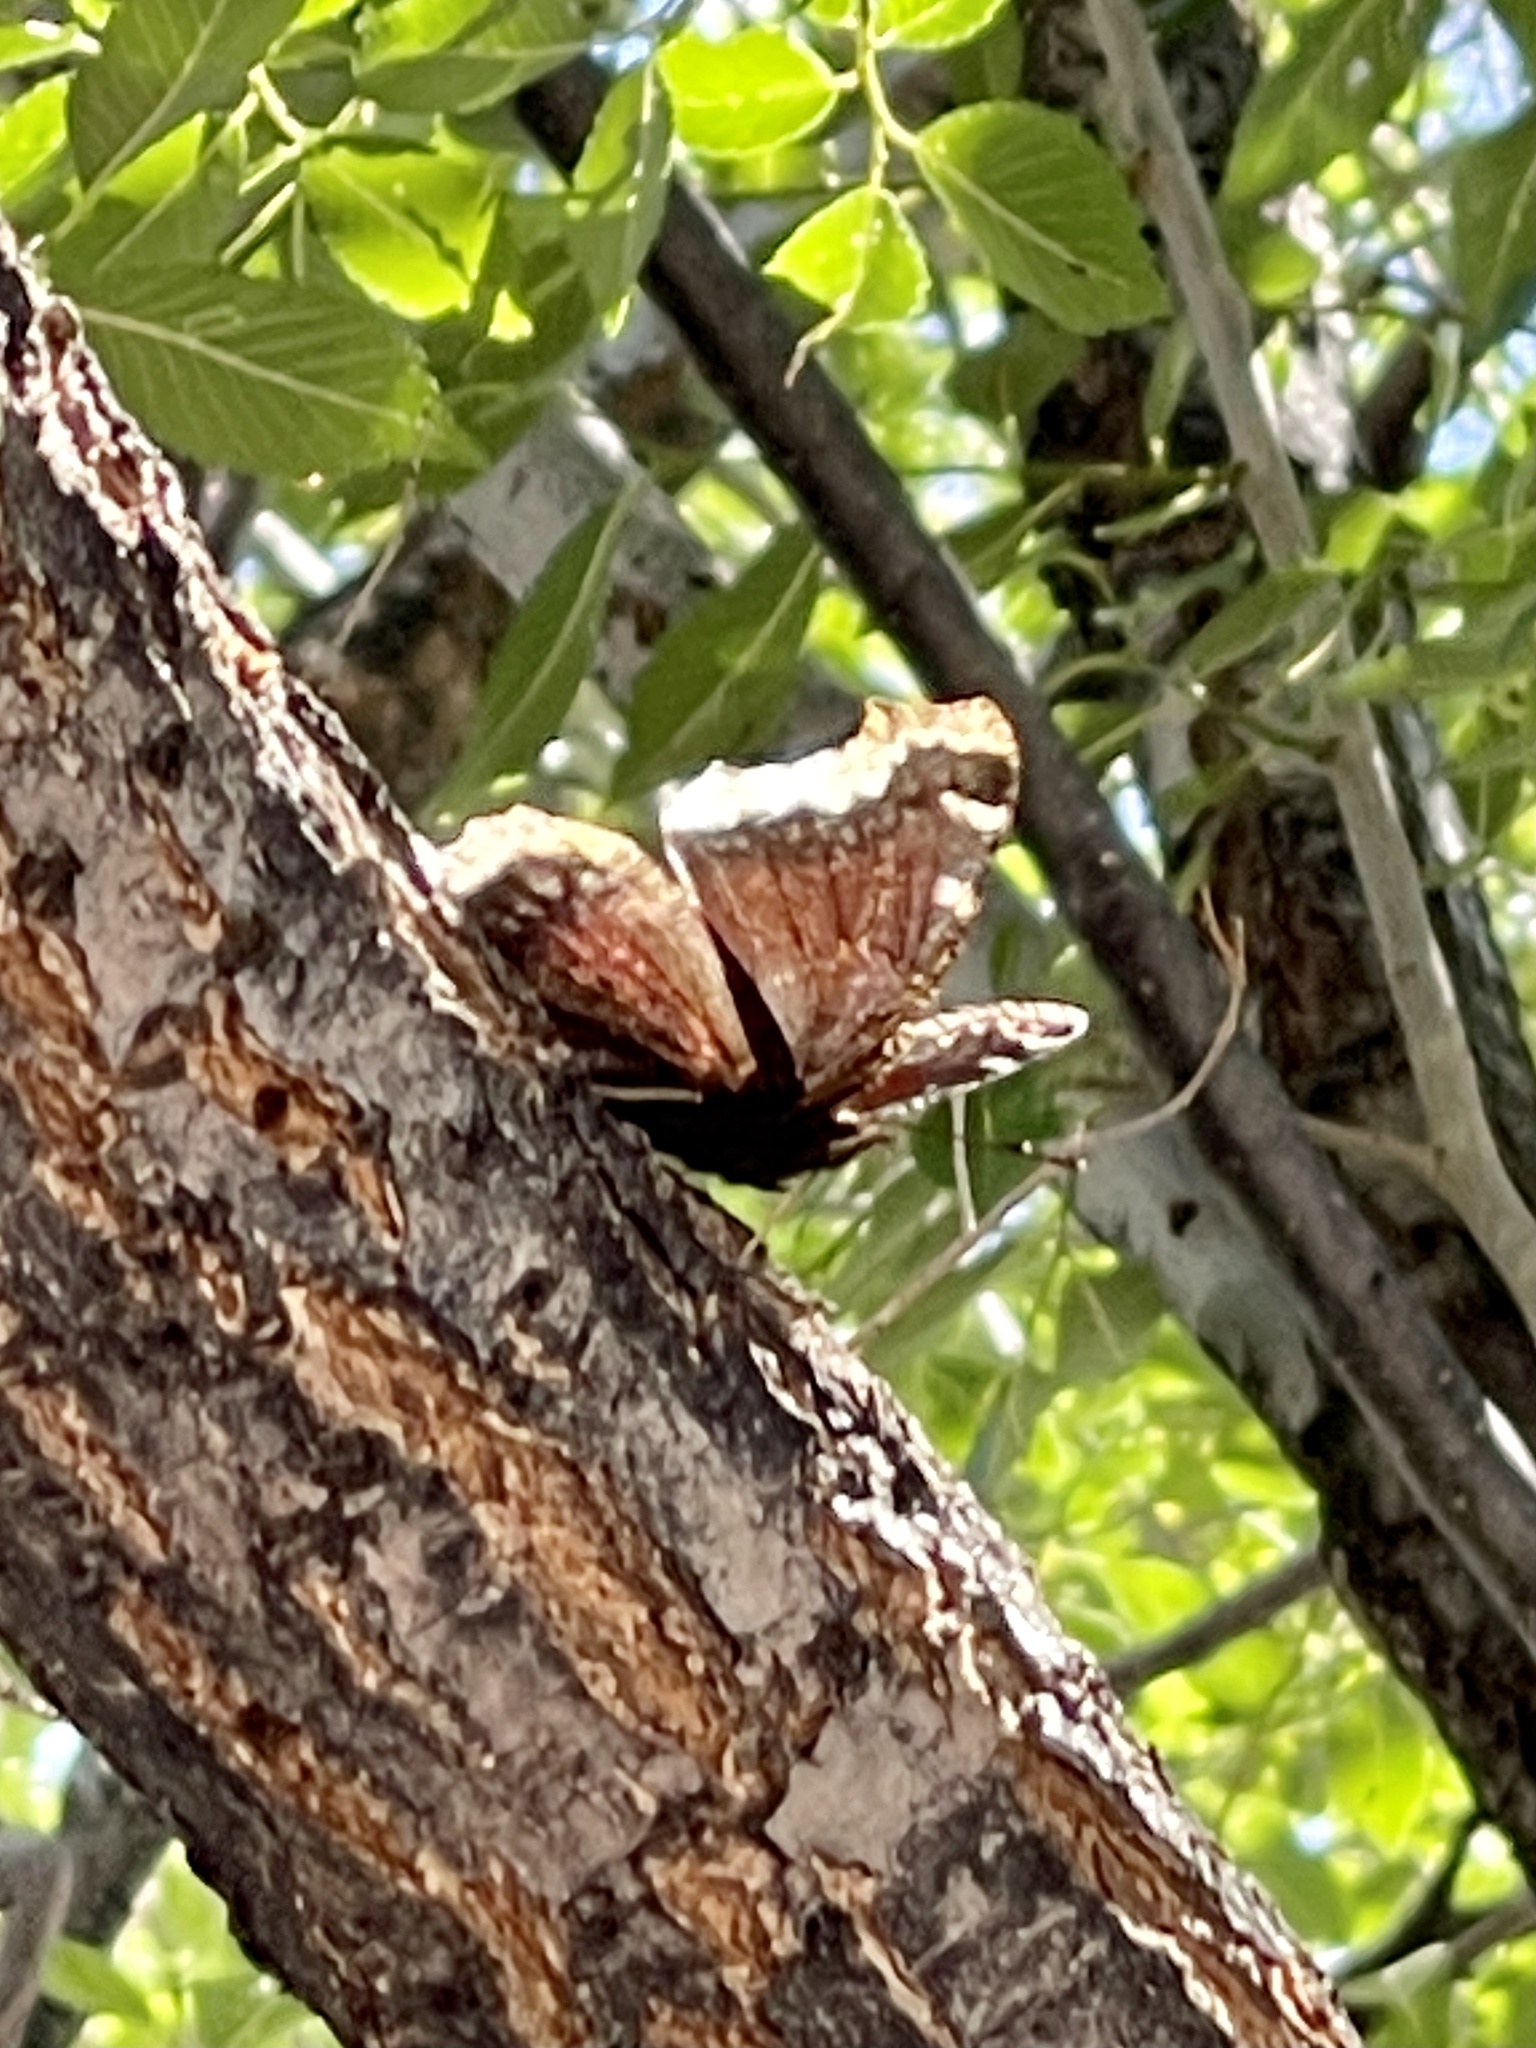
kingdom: Animalia
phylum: Arthropoda
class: Insecta
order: Lepidoptera
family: Nymphalidae
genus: Nymphalis
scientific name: Nymphalis antiopa
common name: Camberwell beauty
